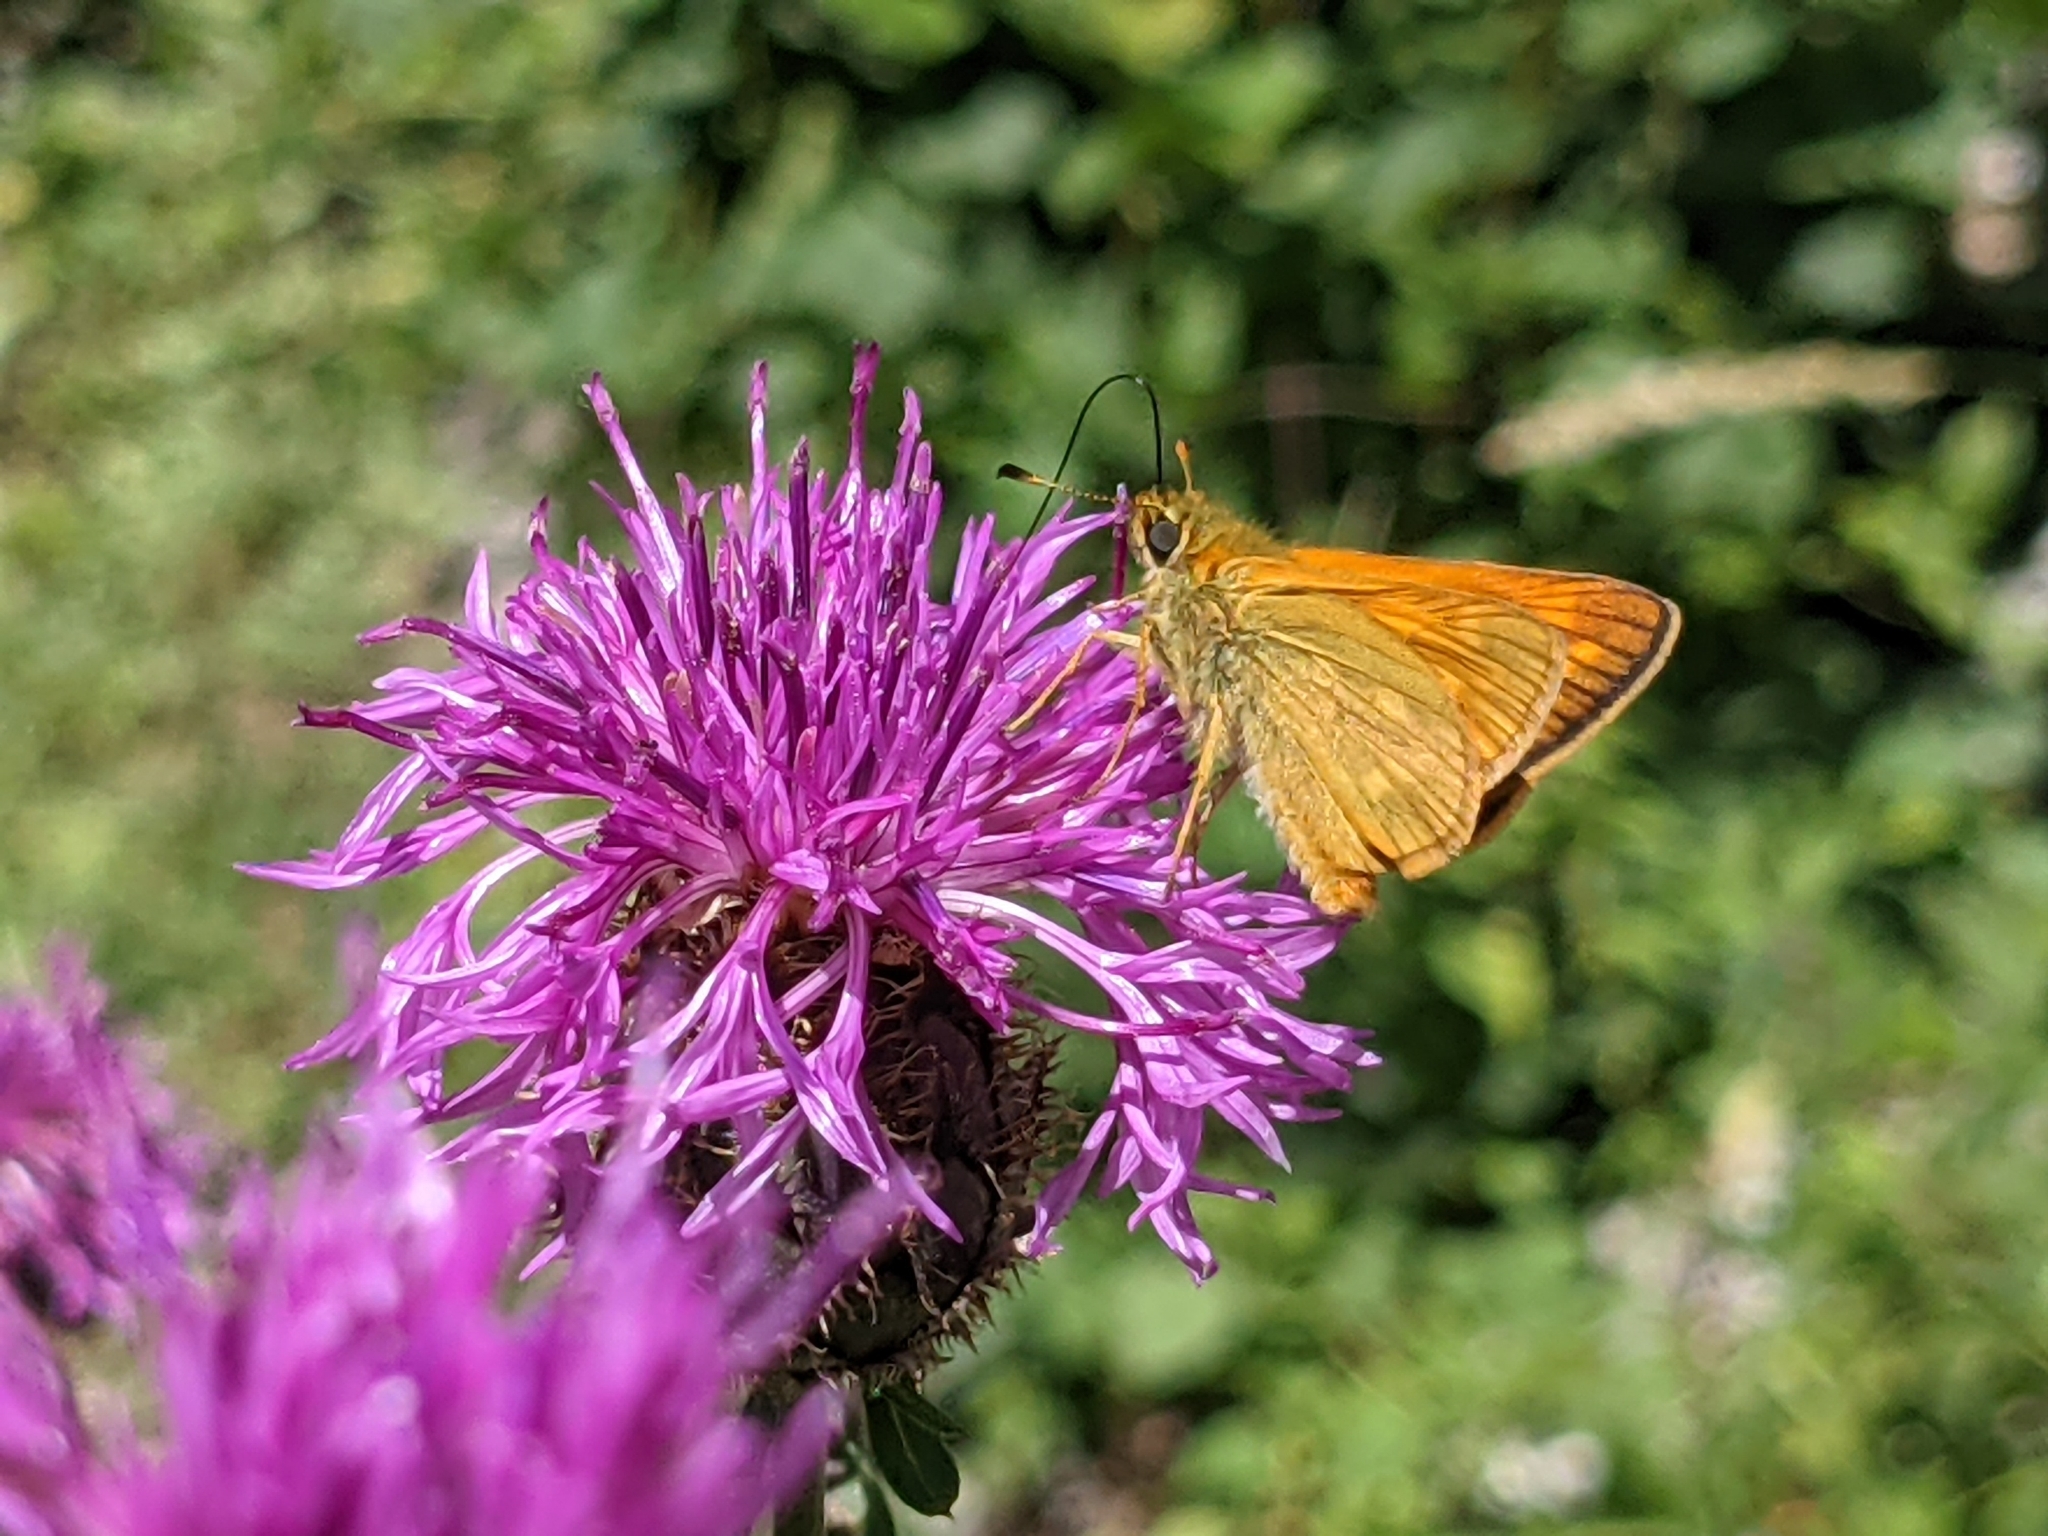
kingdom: Animalia
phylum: Arthropoda
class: Insecta
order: Lepidoptera
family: Hesperiidae
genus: Ochlodes
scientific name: Ochlodes venata
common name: Large skipper
